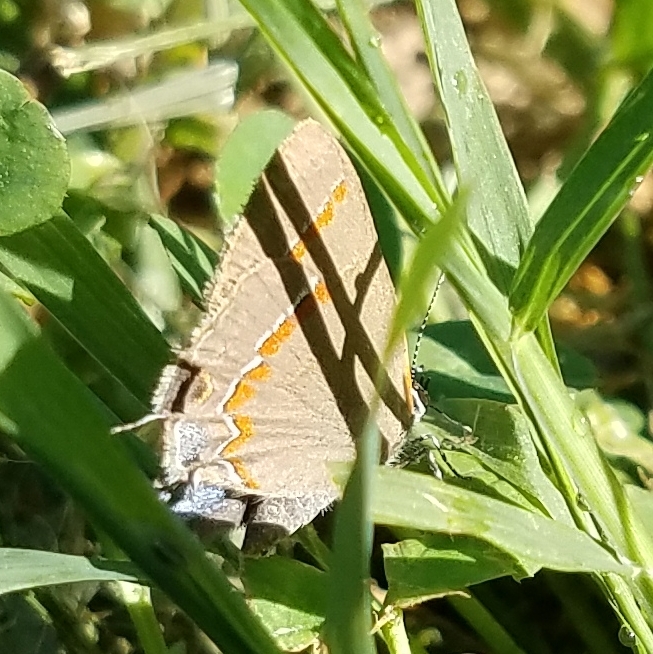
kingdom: Animalia
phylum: Arthropoda
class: Insecta
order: Lepidoptera
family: Lycaenidae
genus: Calycopis
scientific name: Calycopis cecrops
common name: Red-banded hairstreak
